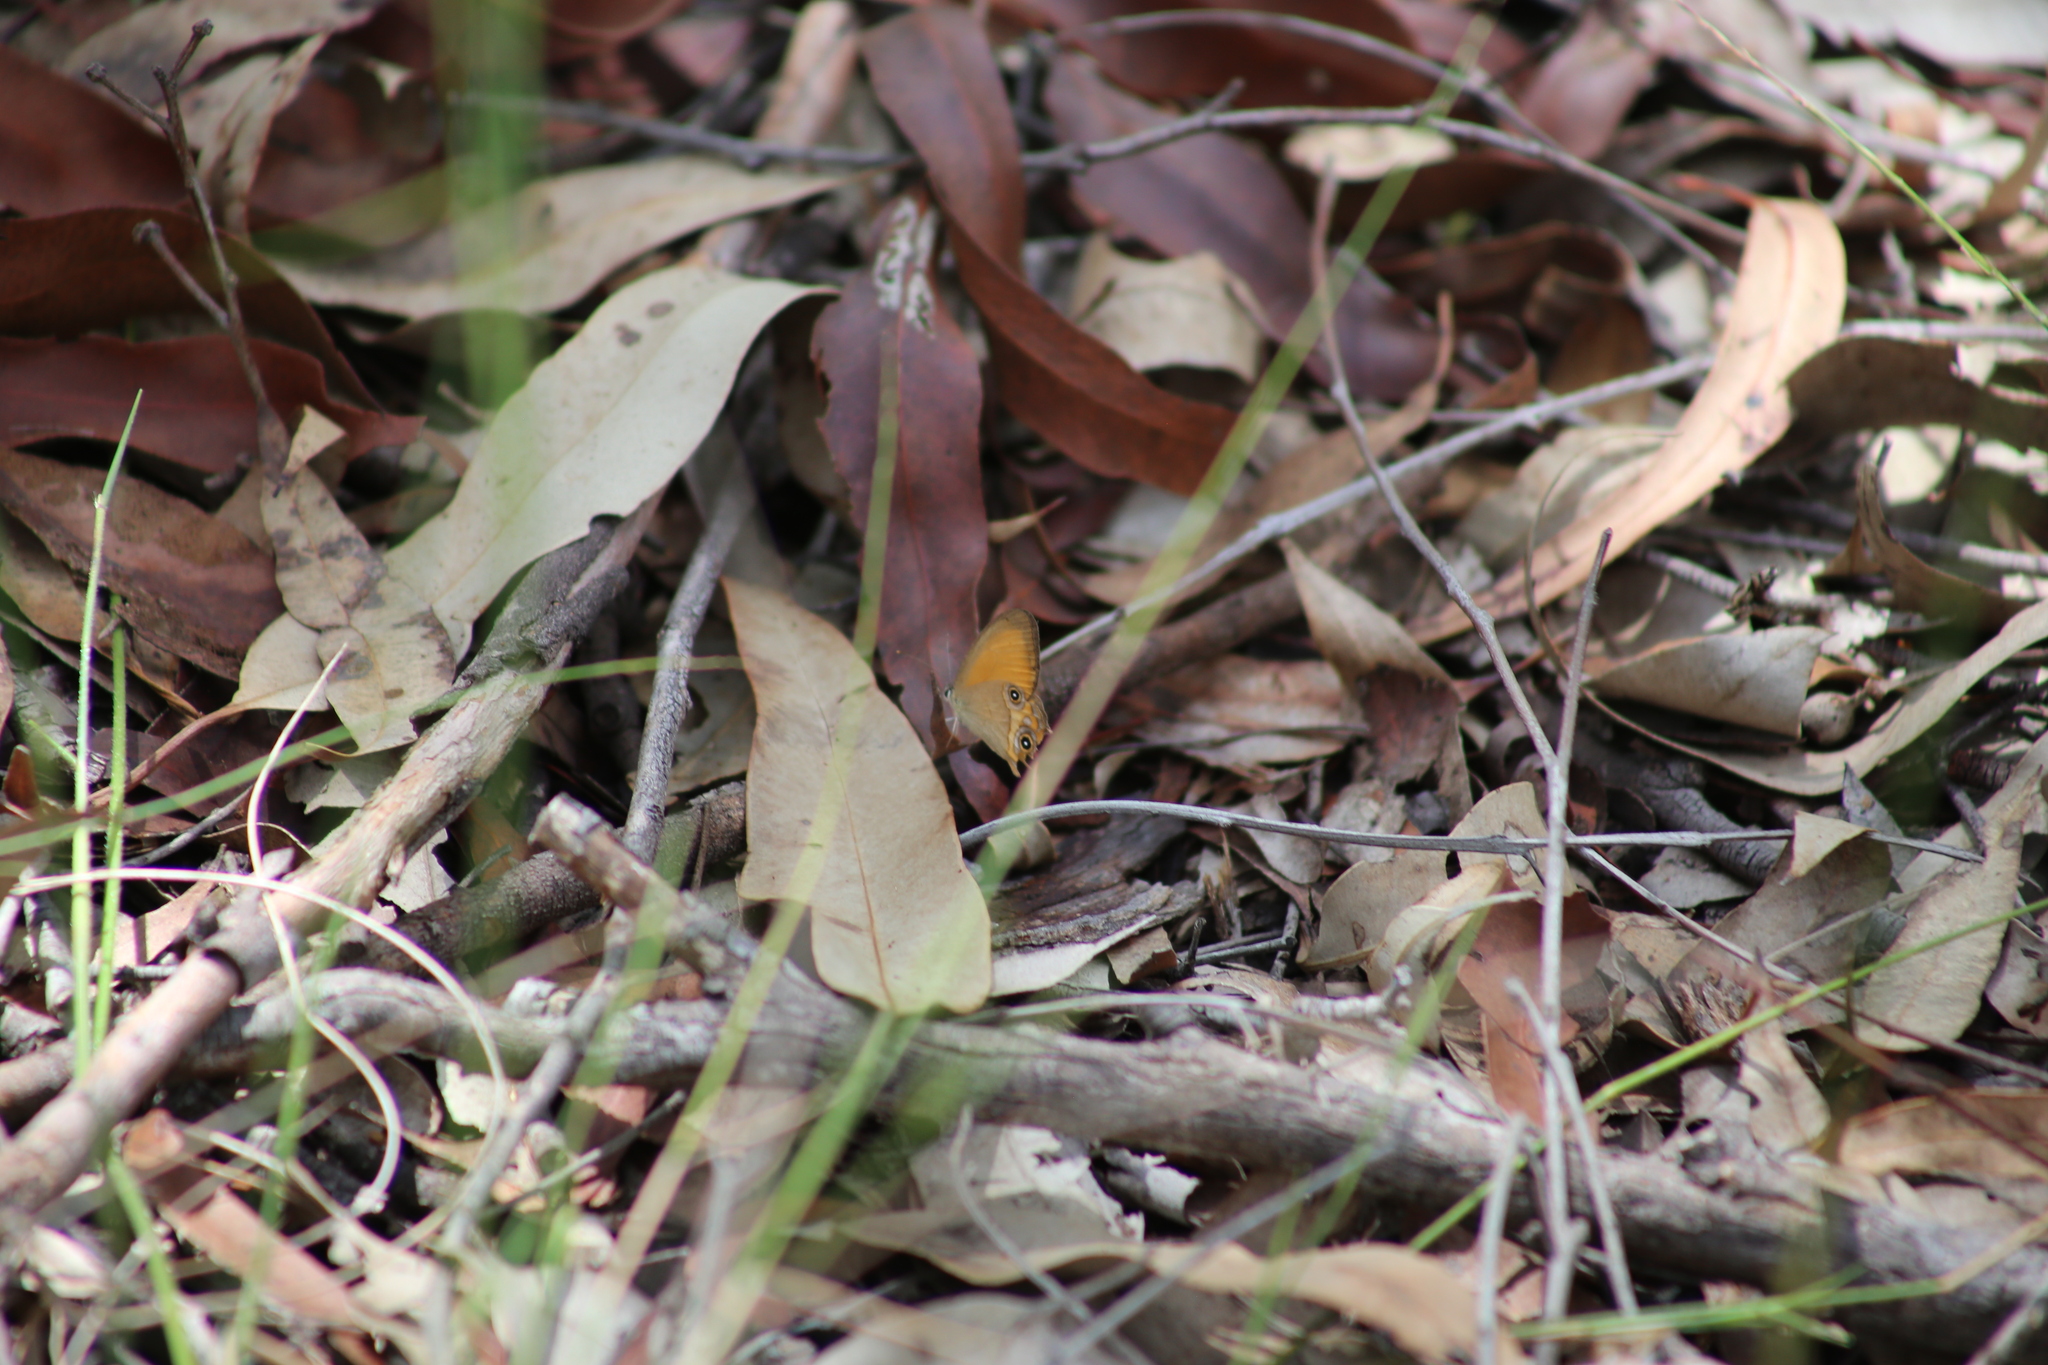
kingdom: Animalia
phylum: Arthropoda
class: Insecta
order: Lepidoptera
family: Nymphalidae
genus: Hypocysta
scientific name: Hypocysta adiante
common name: Orange ringlet
